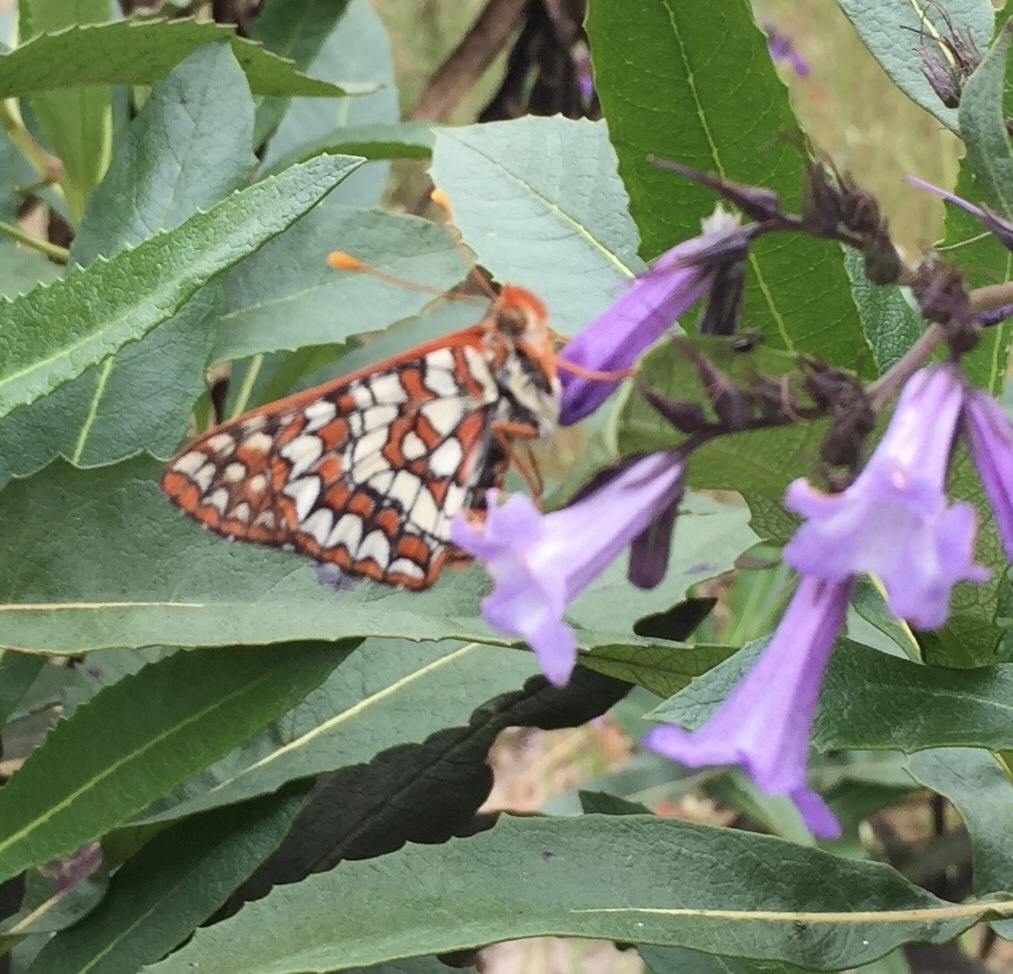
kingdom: Animalia
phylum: Arthropoda
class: Insecta
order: Lepidoptera
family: Nymphalidae
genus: Occidryas
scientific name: Occidryas chalcedona
